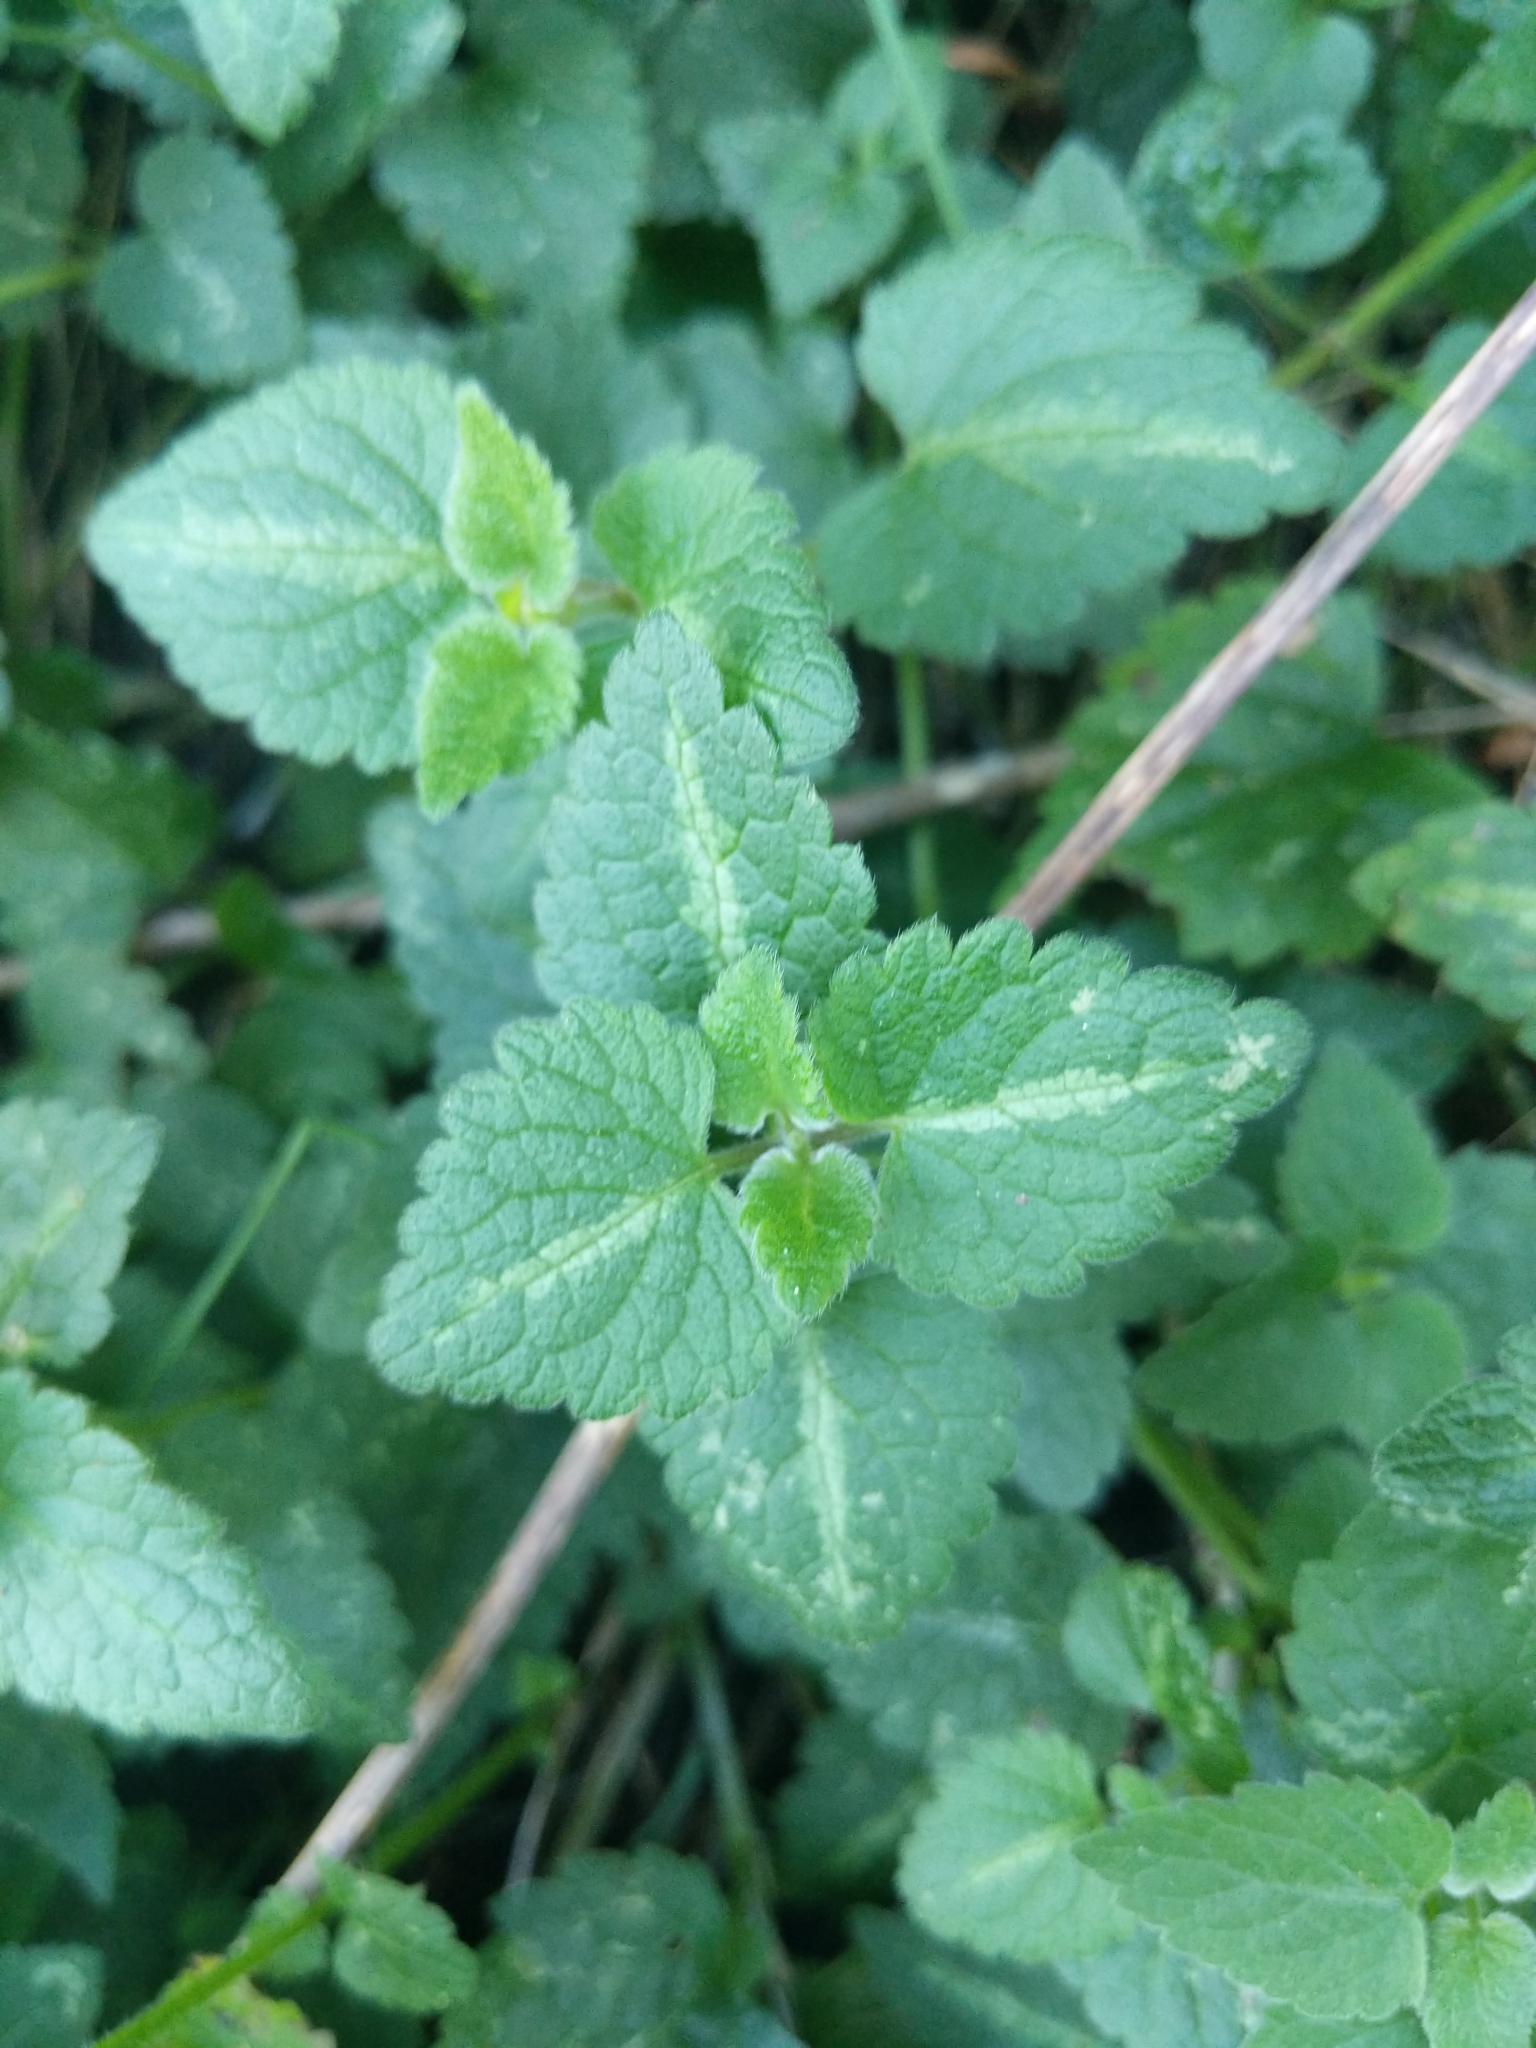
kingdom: Plantae
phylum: Tracheophyta
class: Magnoliopsida
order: Lamiales
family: Lamiaceae
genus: Lamium
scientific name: Lamium maculatum
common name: Spotted dead-nettle
